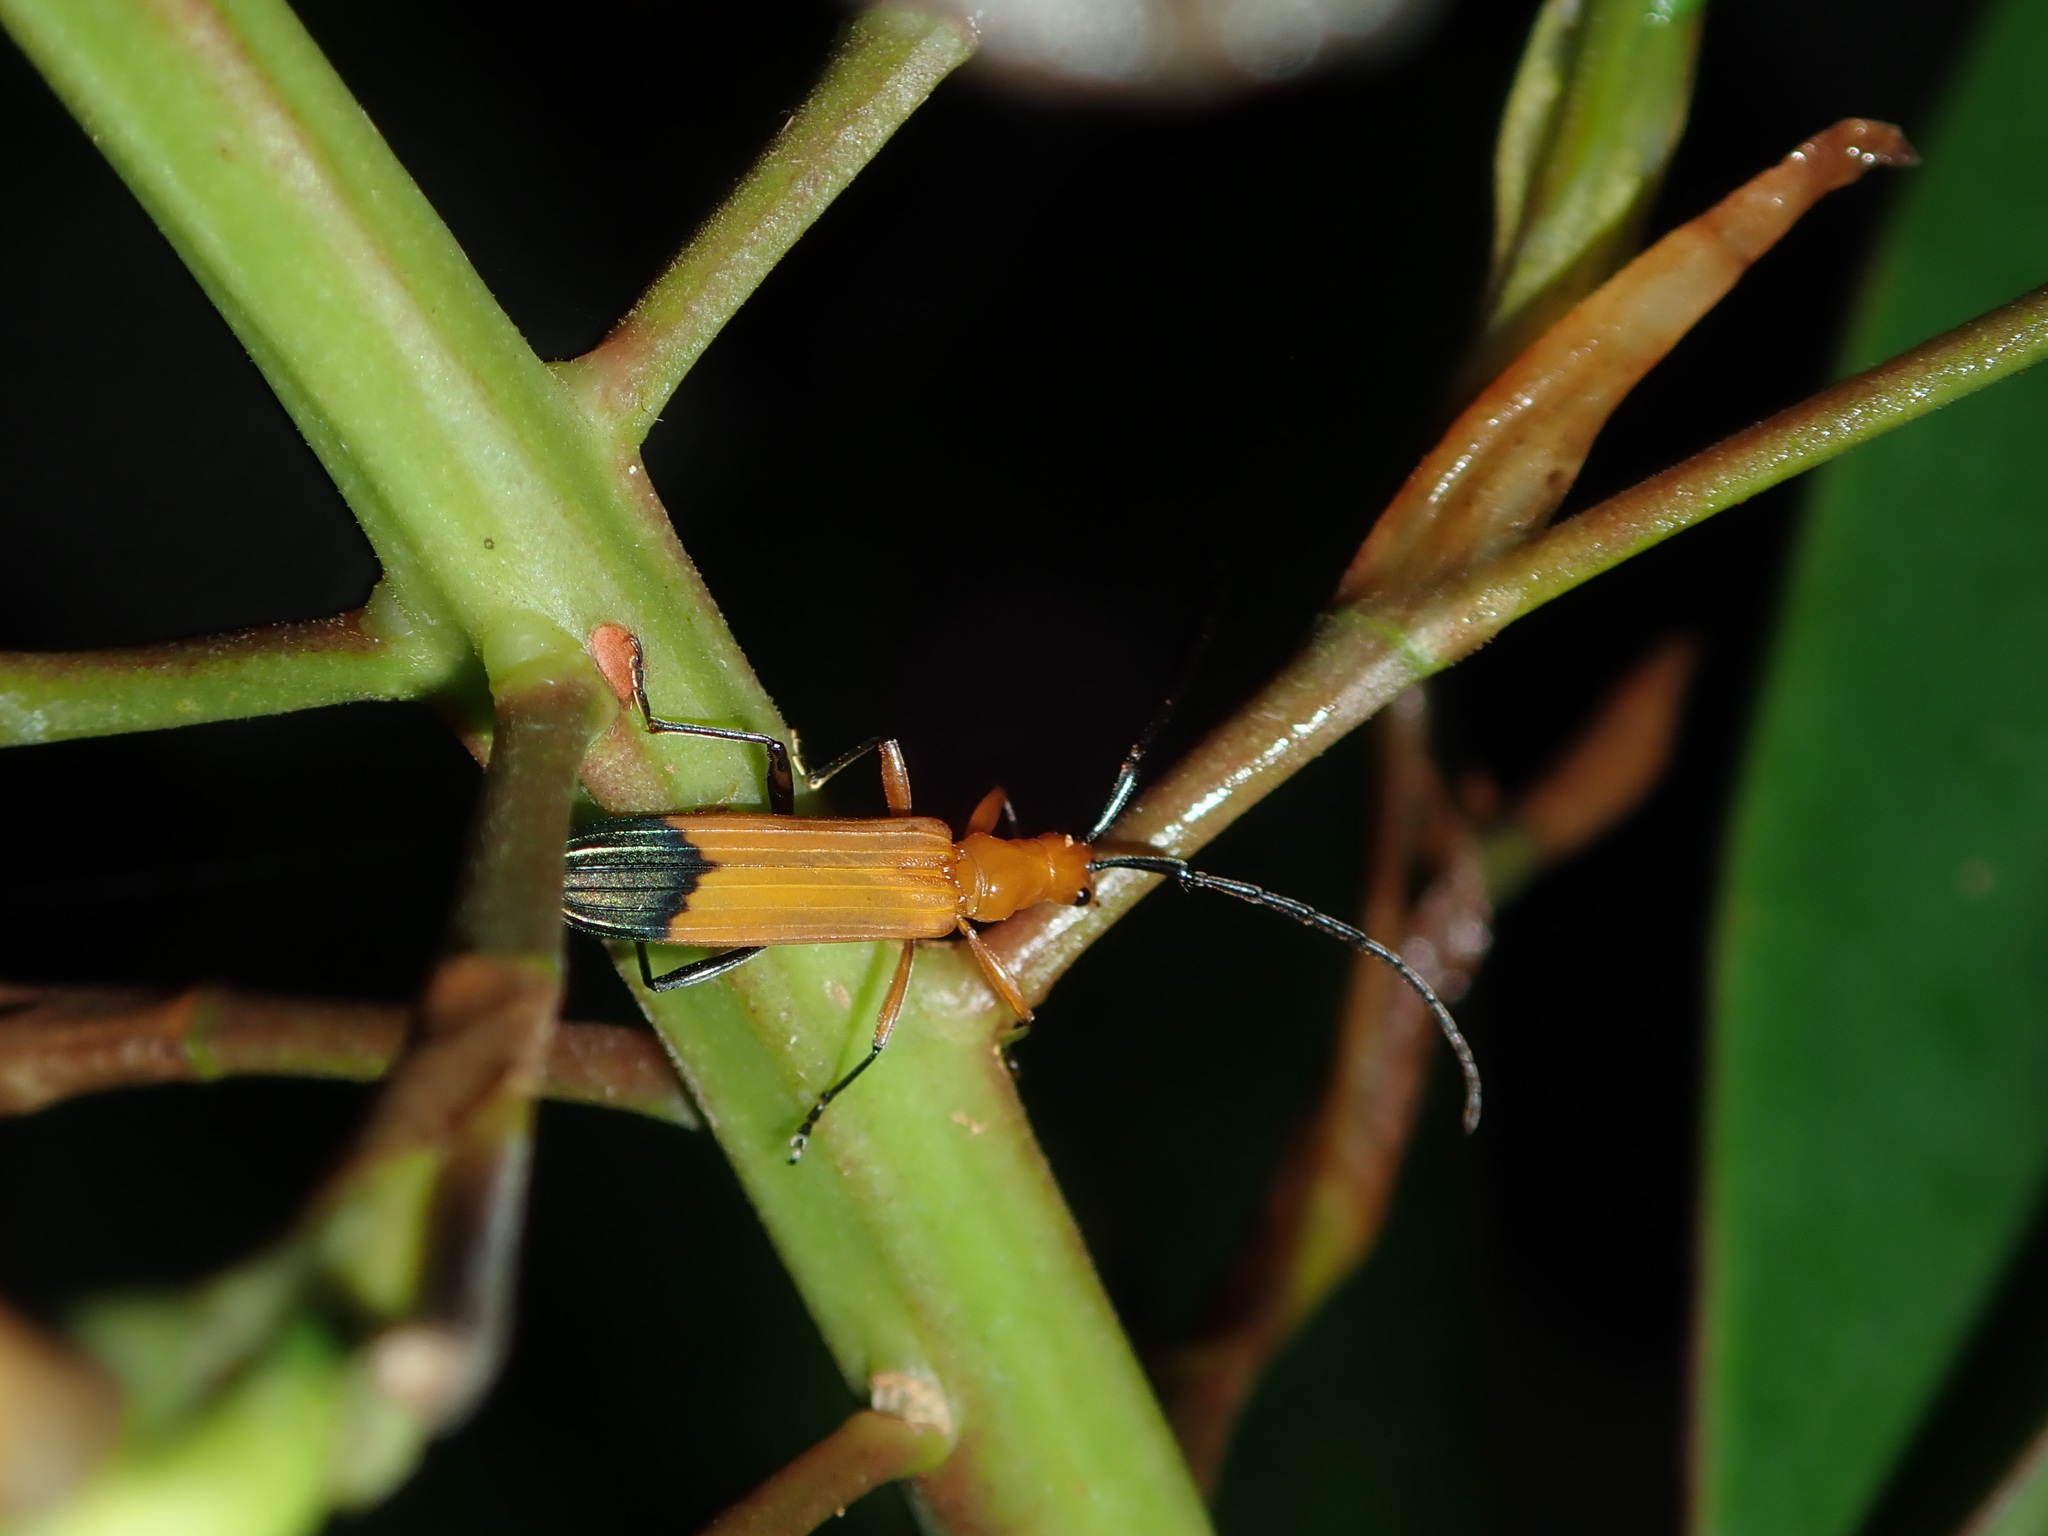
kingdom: Animalia
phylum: Arthropoda
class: Insecta
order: Coleoptera
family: Cerambycidae
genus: Stenoderus
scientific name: Stenoderus ostricilla
